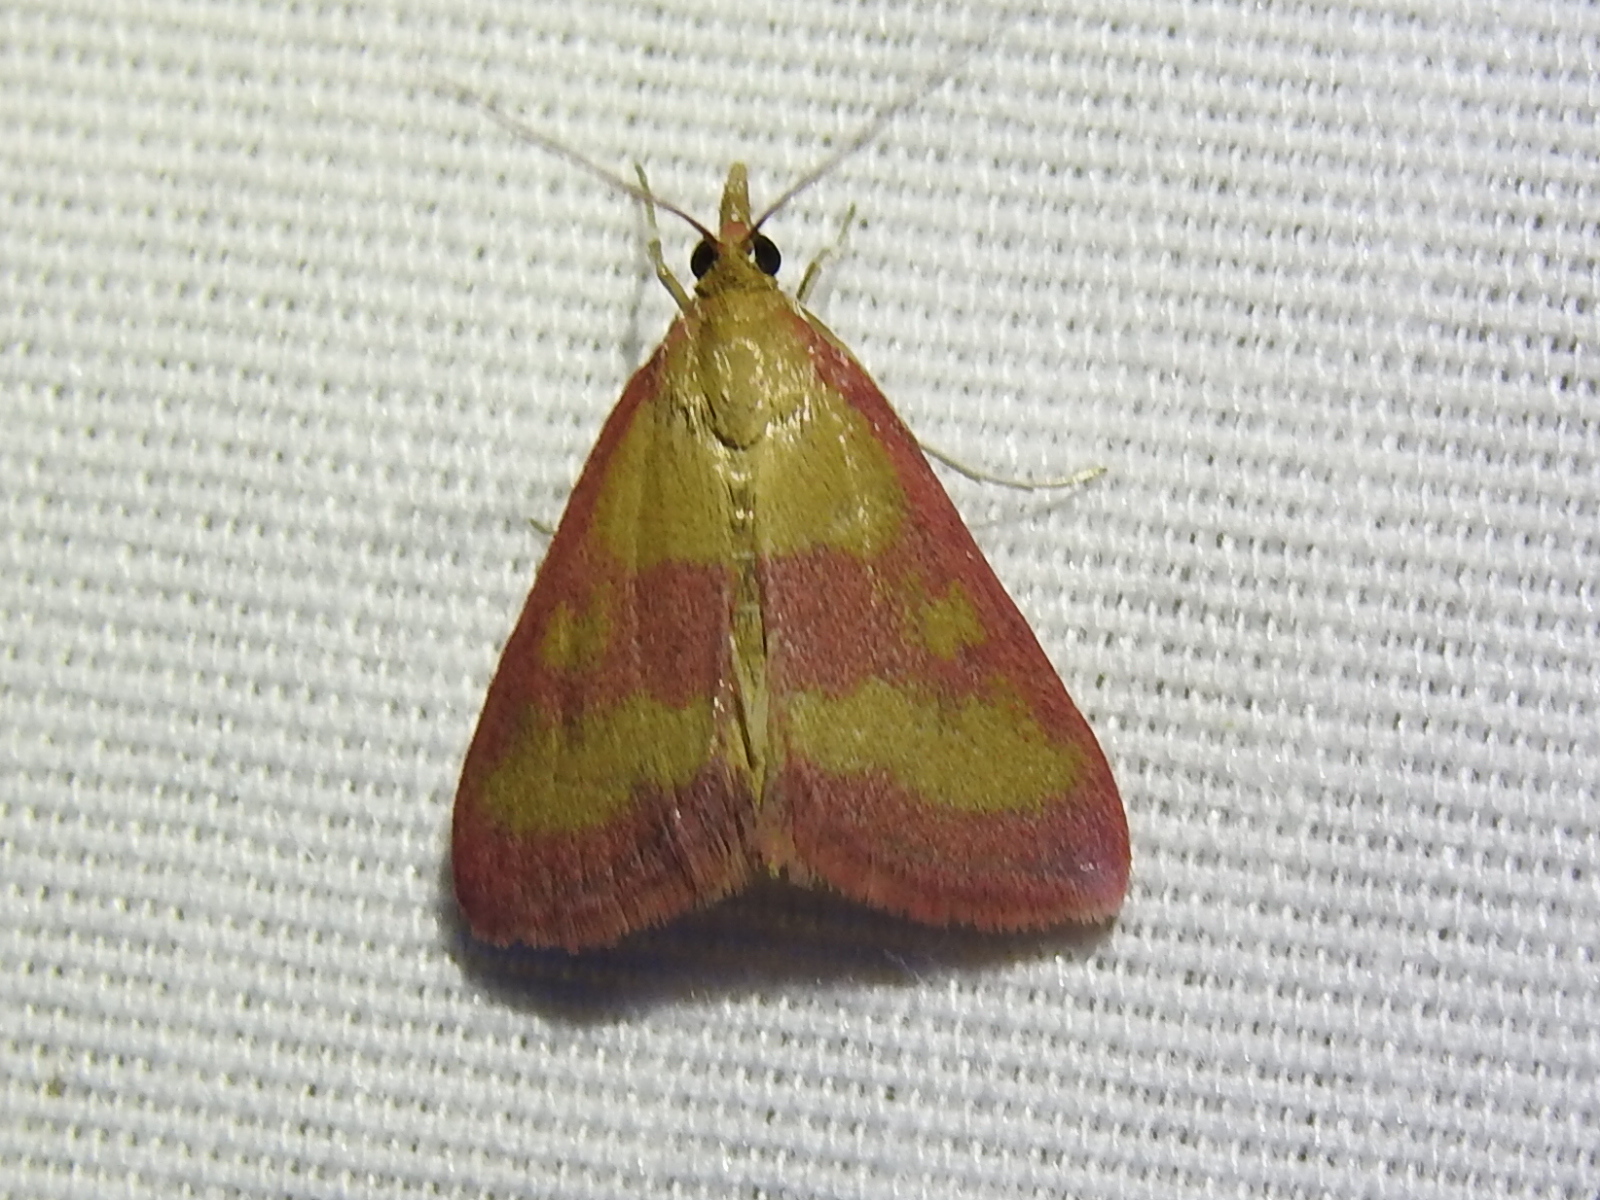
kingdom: Animalia
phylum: Arthropoda
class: Insecta
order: Lepidoptera
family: Crambidae
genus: Pyrausta
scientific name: Pyrausta laticlavia
